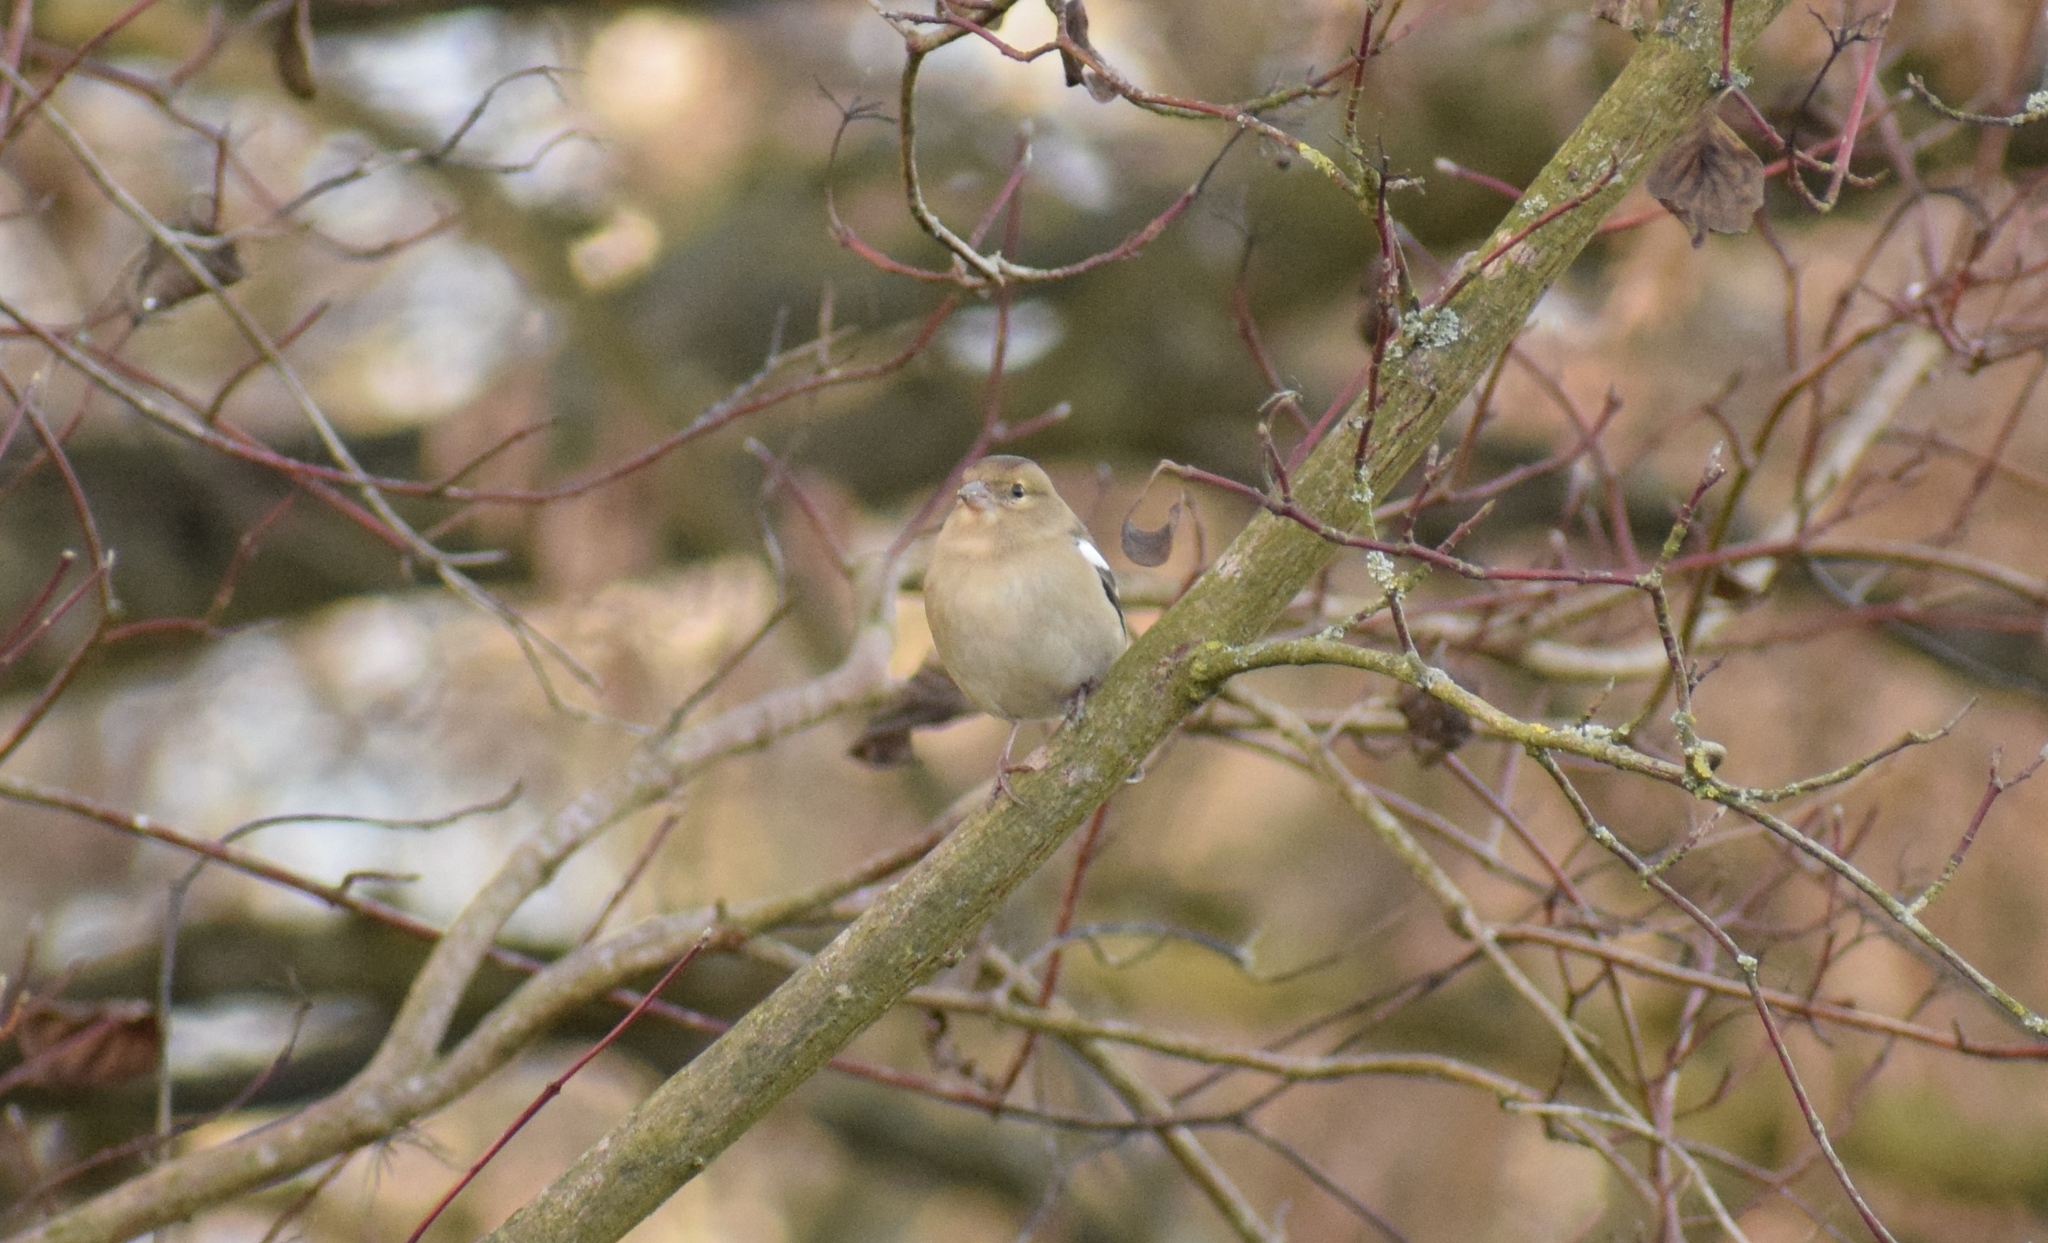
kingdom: Animalia
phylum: Chordata
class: Aves
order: Passeriformes
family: Fringillidae
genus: Fringilla
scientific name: Fringilla coelebs
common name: Common chaffinch
